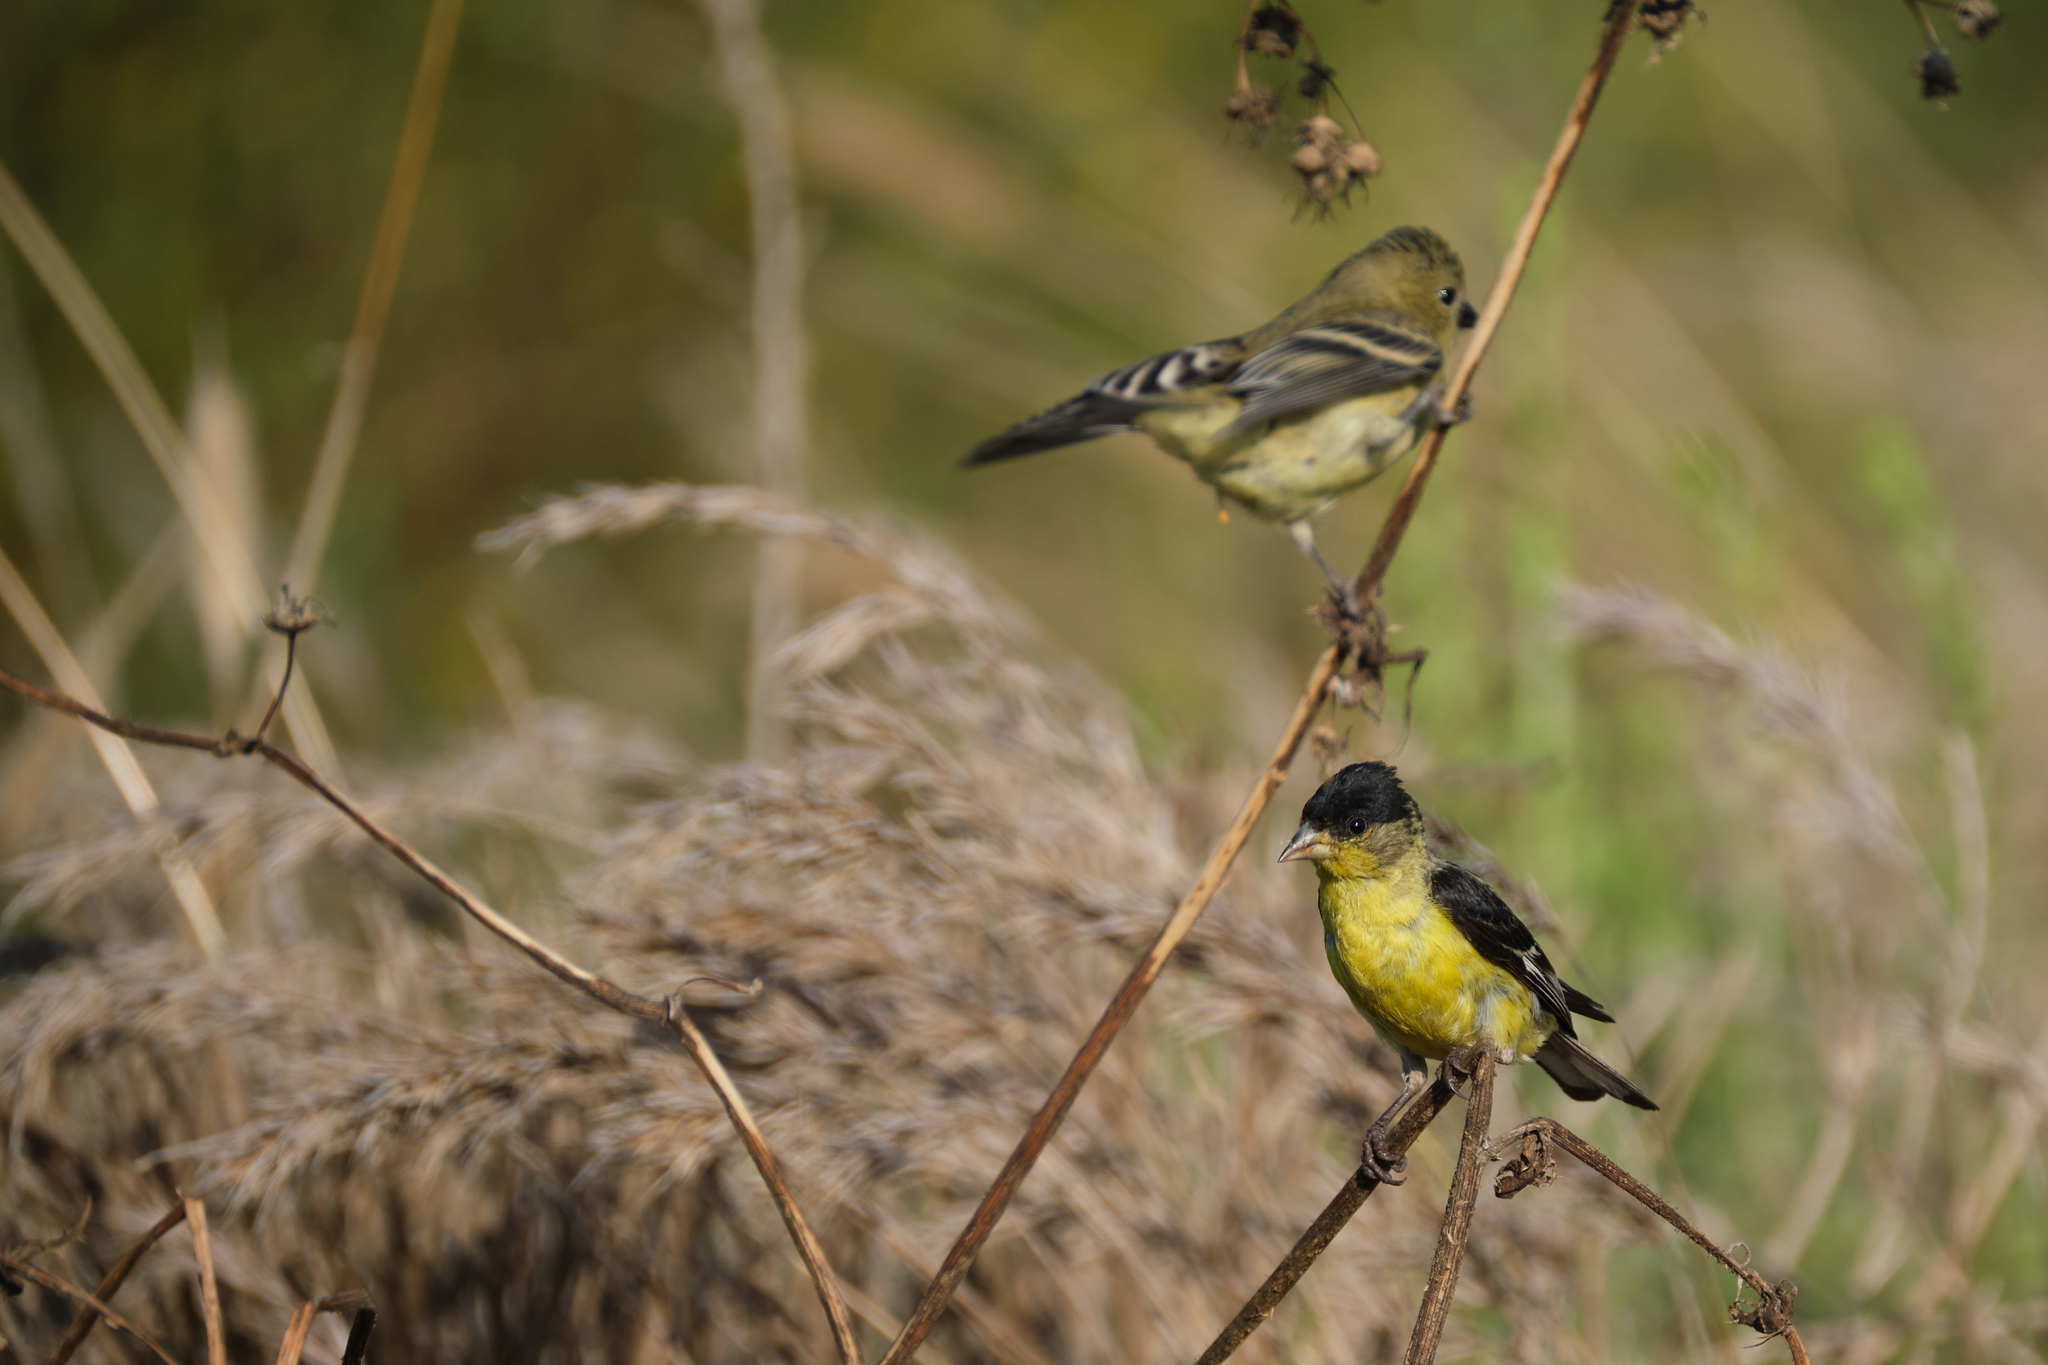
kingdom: Animalia
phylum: Chordata
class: Aves
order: Passeriformes
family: Fringillidae
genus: Spinus
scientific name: Spinus psaltria
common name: Lesser goldfinch
